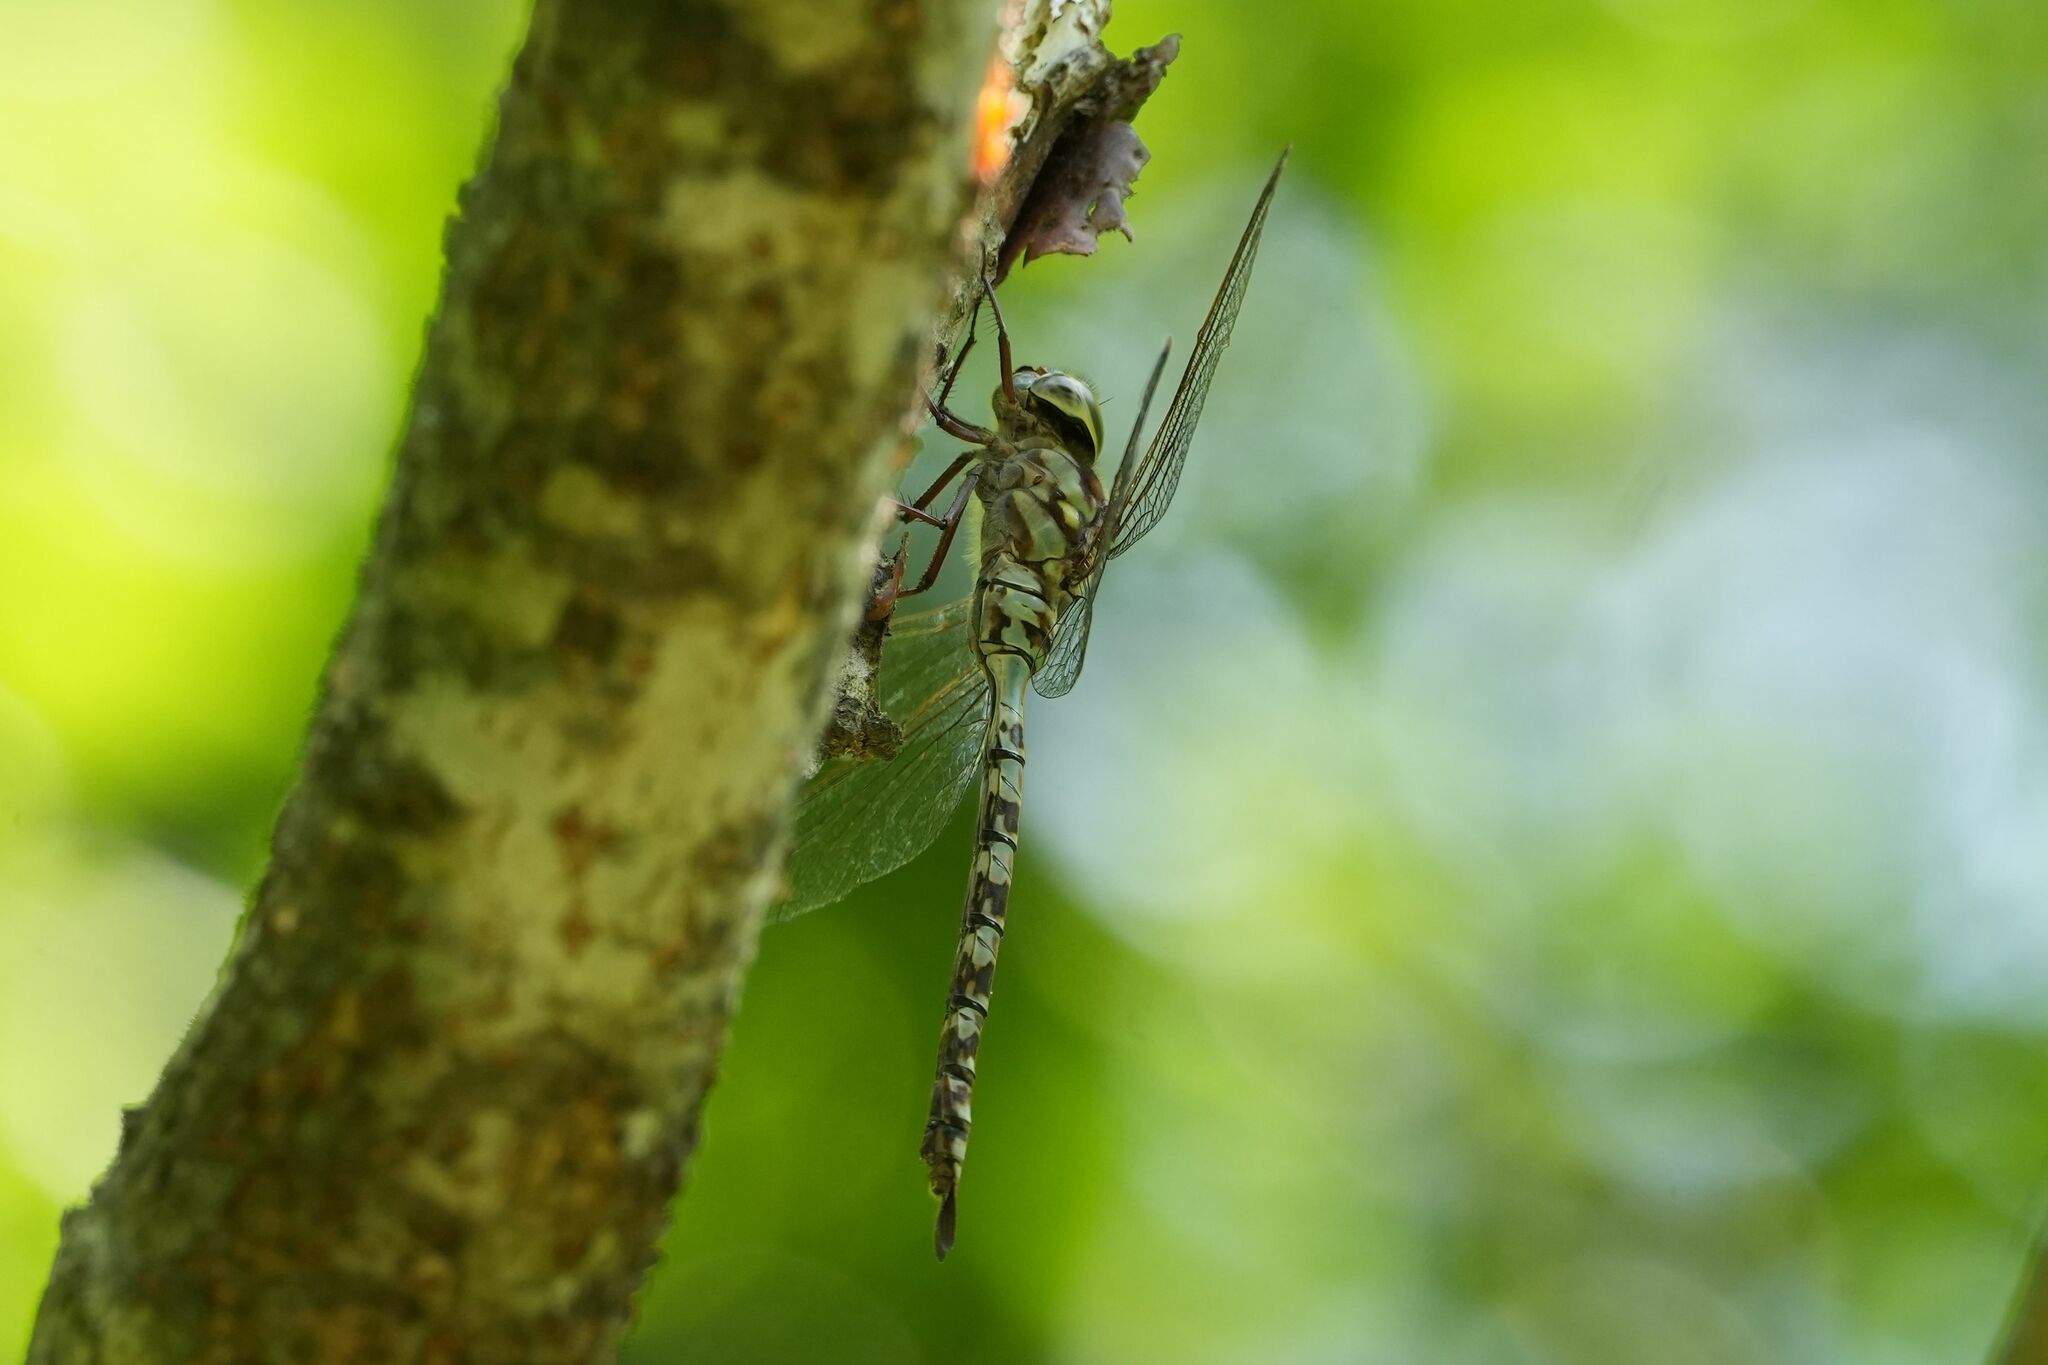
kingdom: Animalia
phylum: Arthropoda
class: Insecta
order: Odonata
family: Aeshnidae
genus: Aeshna
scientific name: Aeshna clepsydra
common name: Mottled darner
